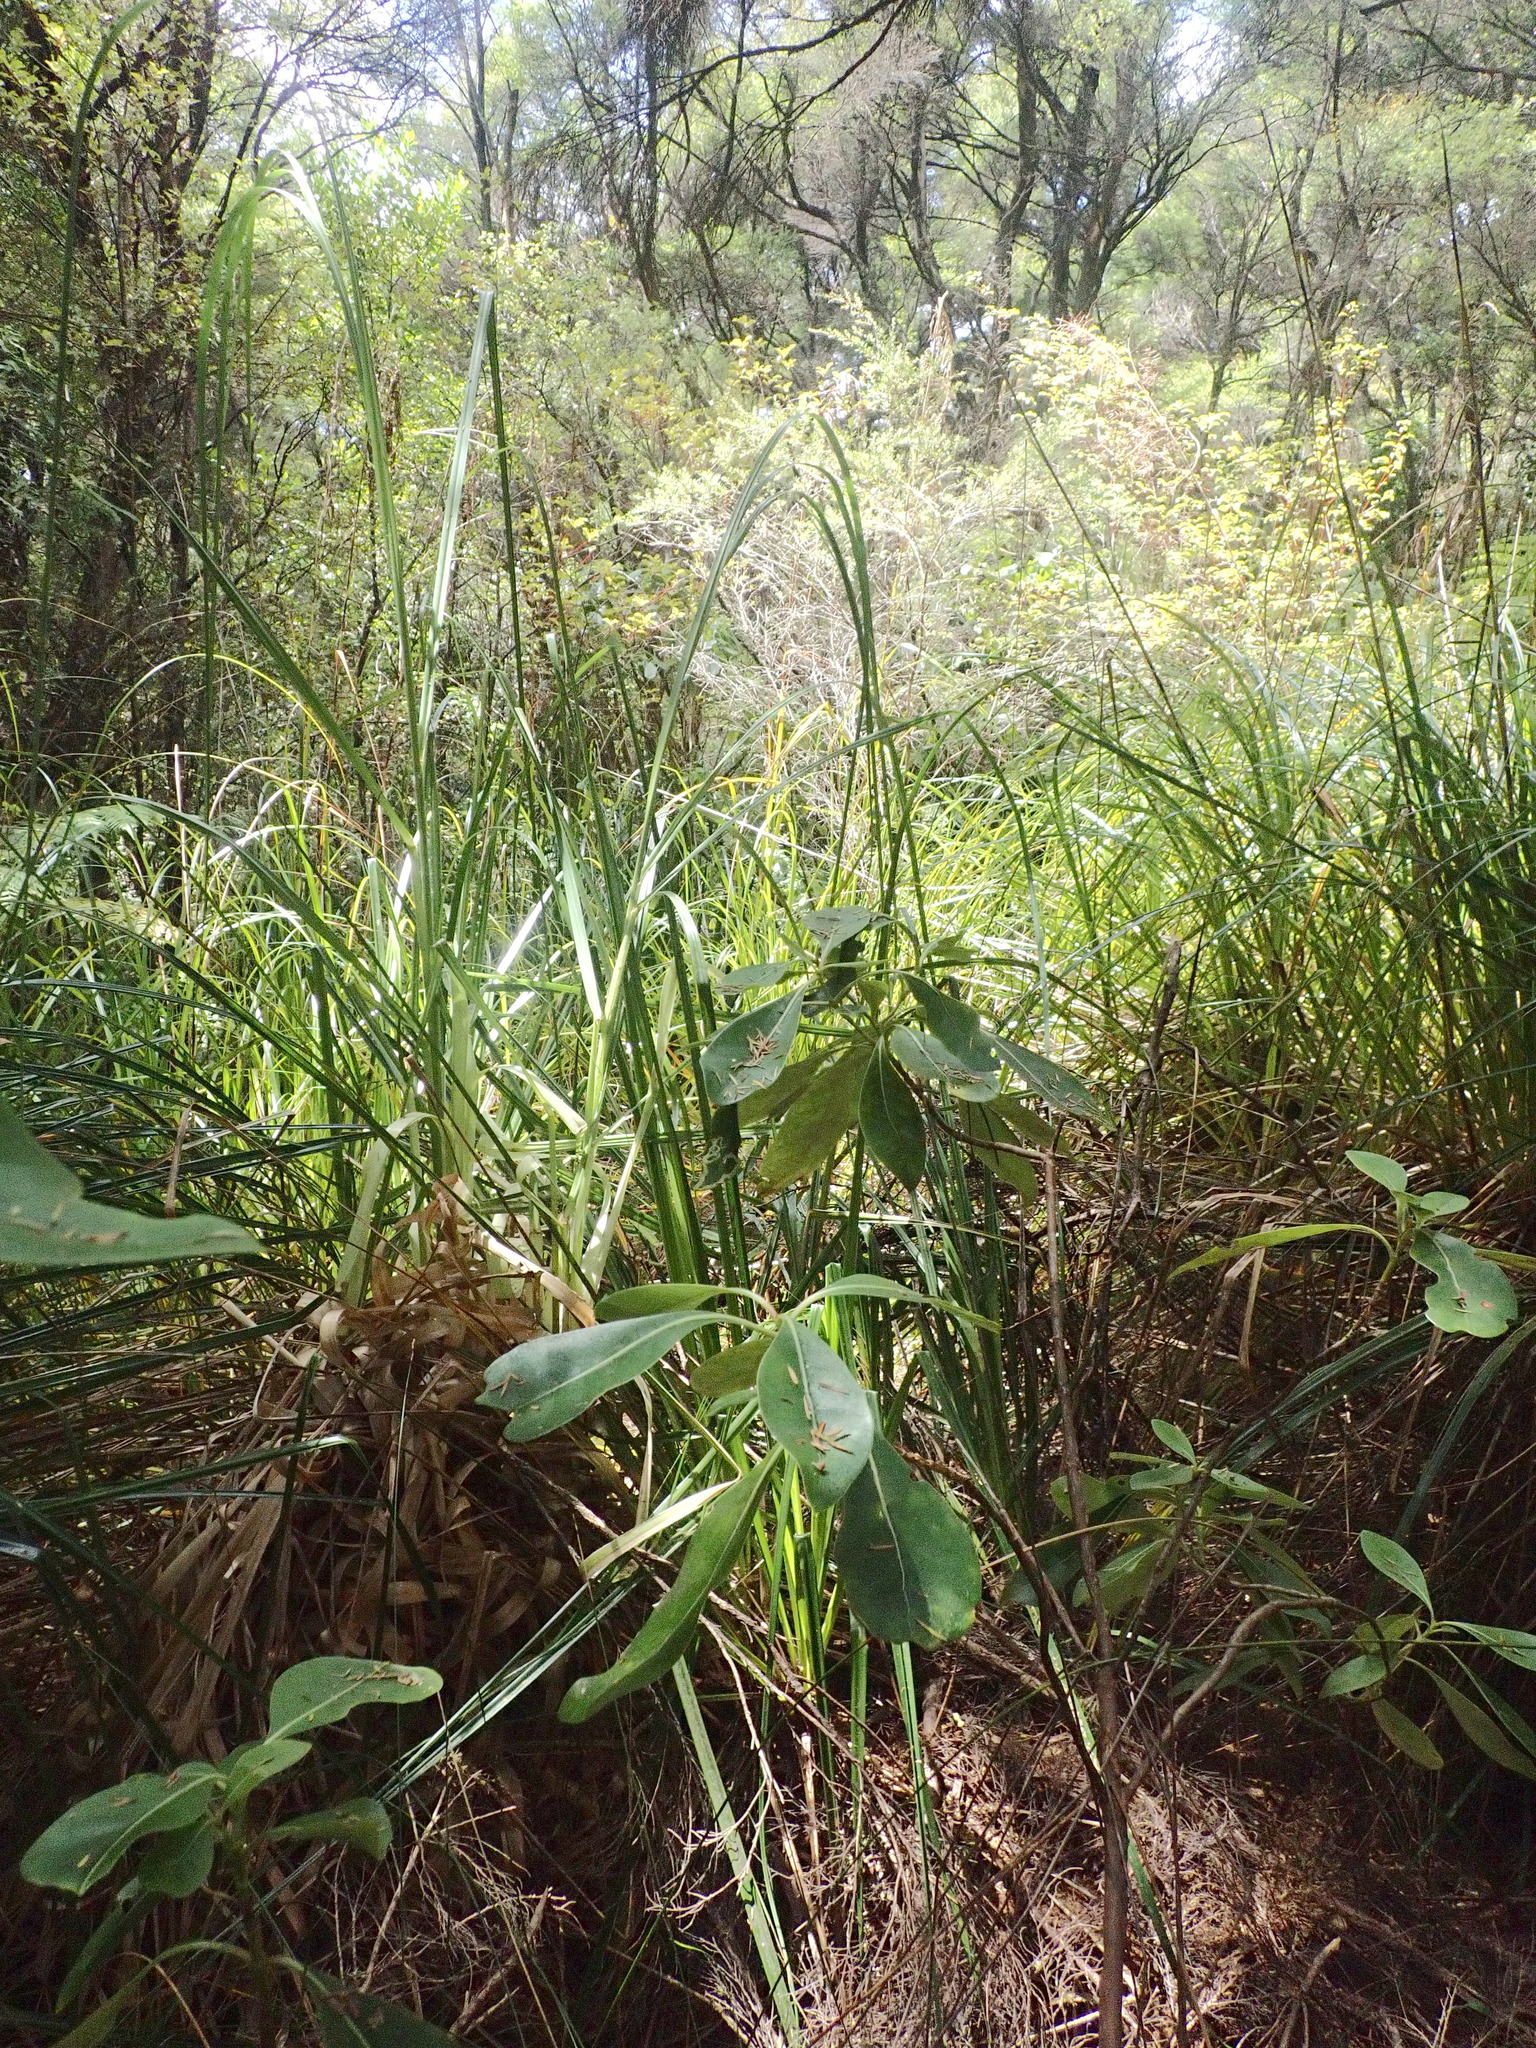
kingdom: Plantae
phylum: Tracheophyta
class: Liliopsida
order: Poales
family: Poaceae
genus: Cortaderia
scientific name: Cortaderia selloana
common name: Uruguayan pampas grass
